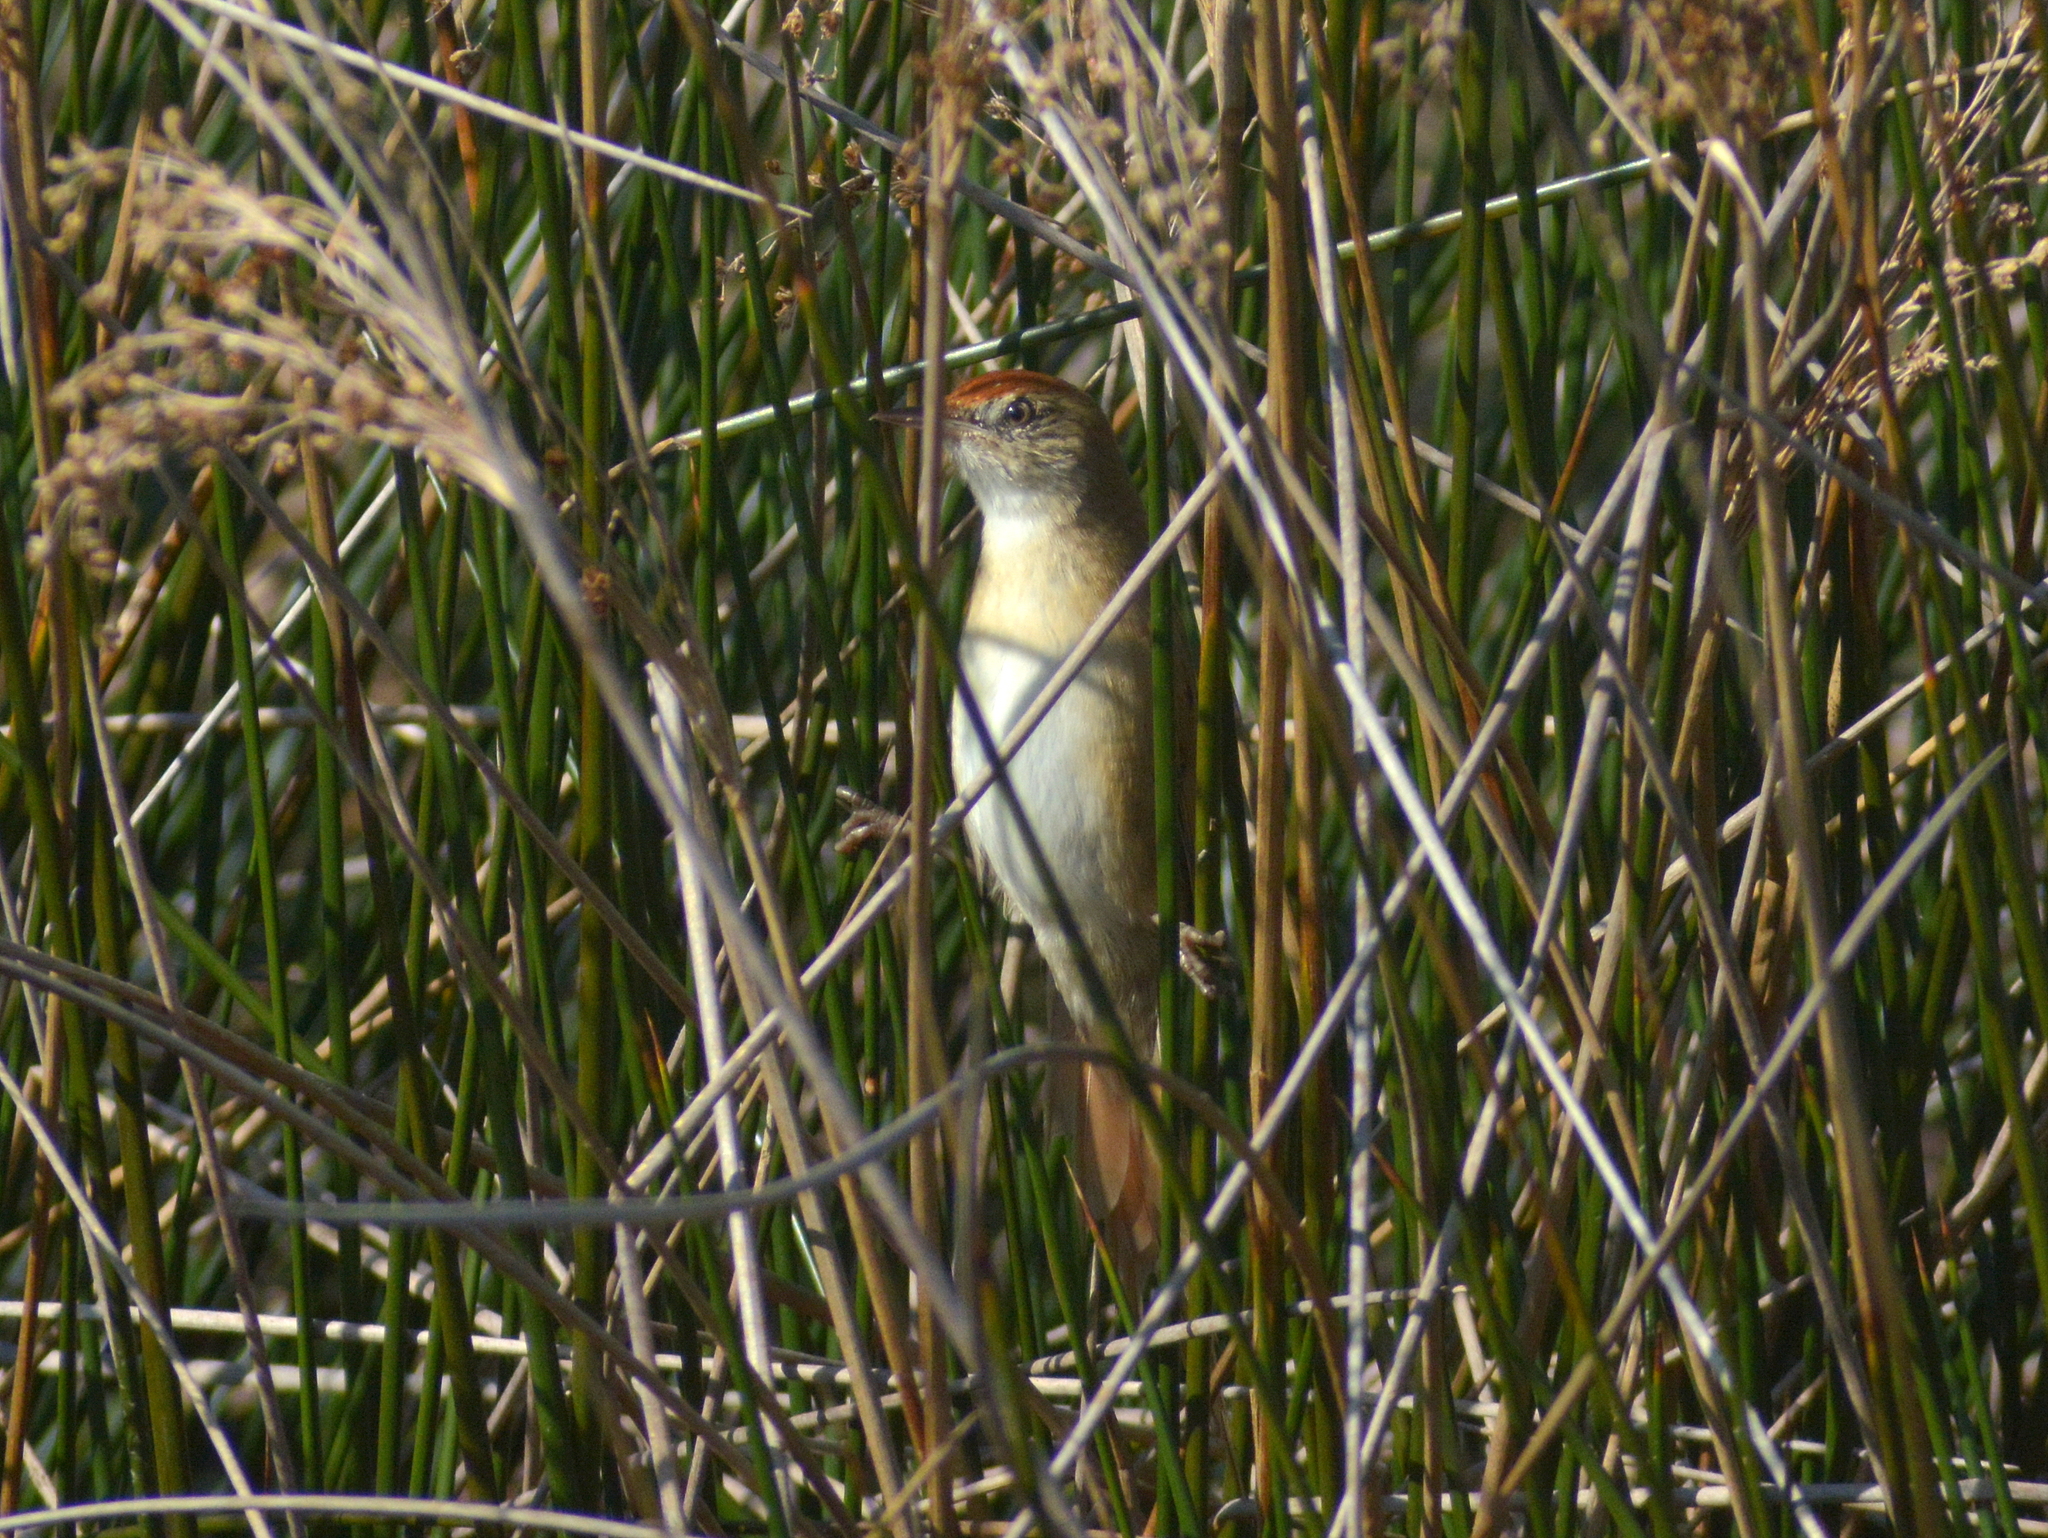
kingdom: Animalia
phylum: Chordata
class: Aves
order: Passeriformes
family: Furnariidae
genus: Spartonoica
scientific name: Spartonoica maluroides
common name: Bay-capped wren-spinetail
